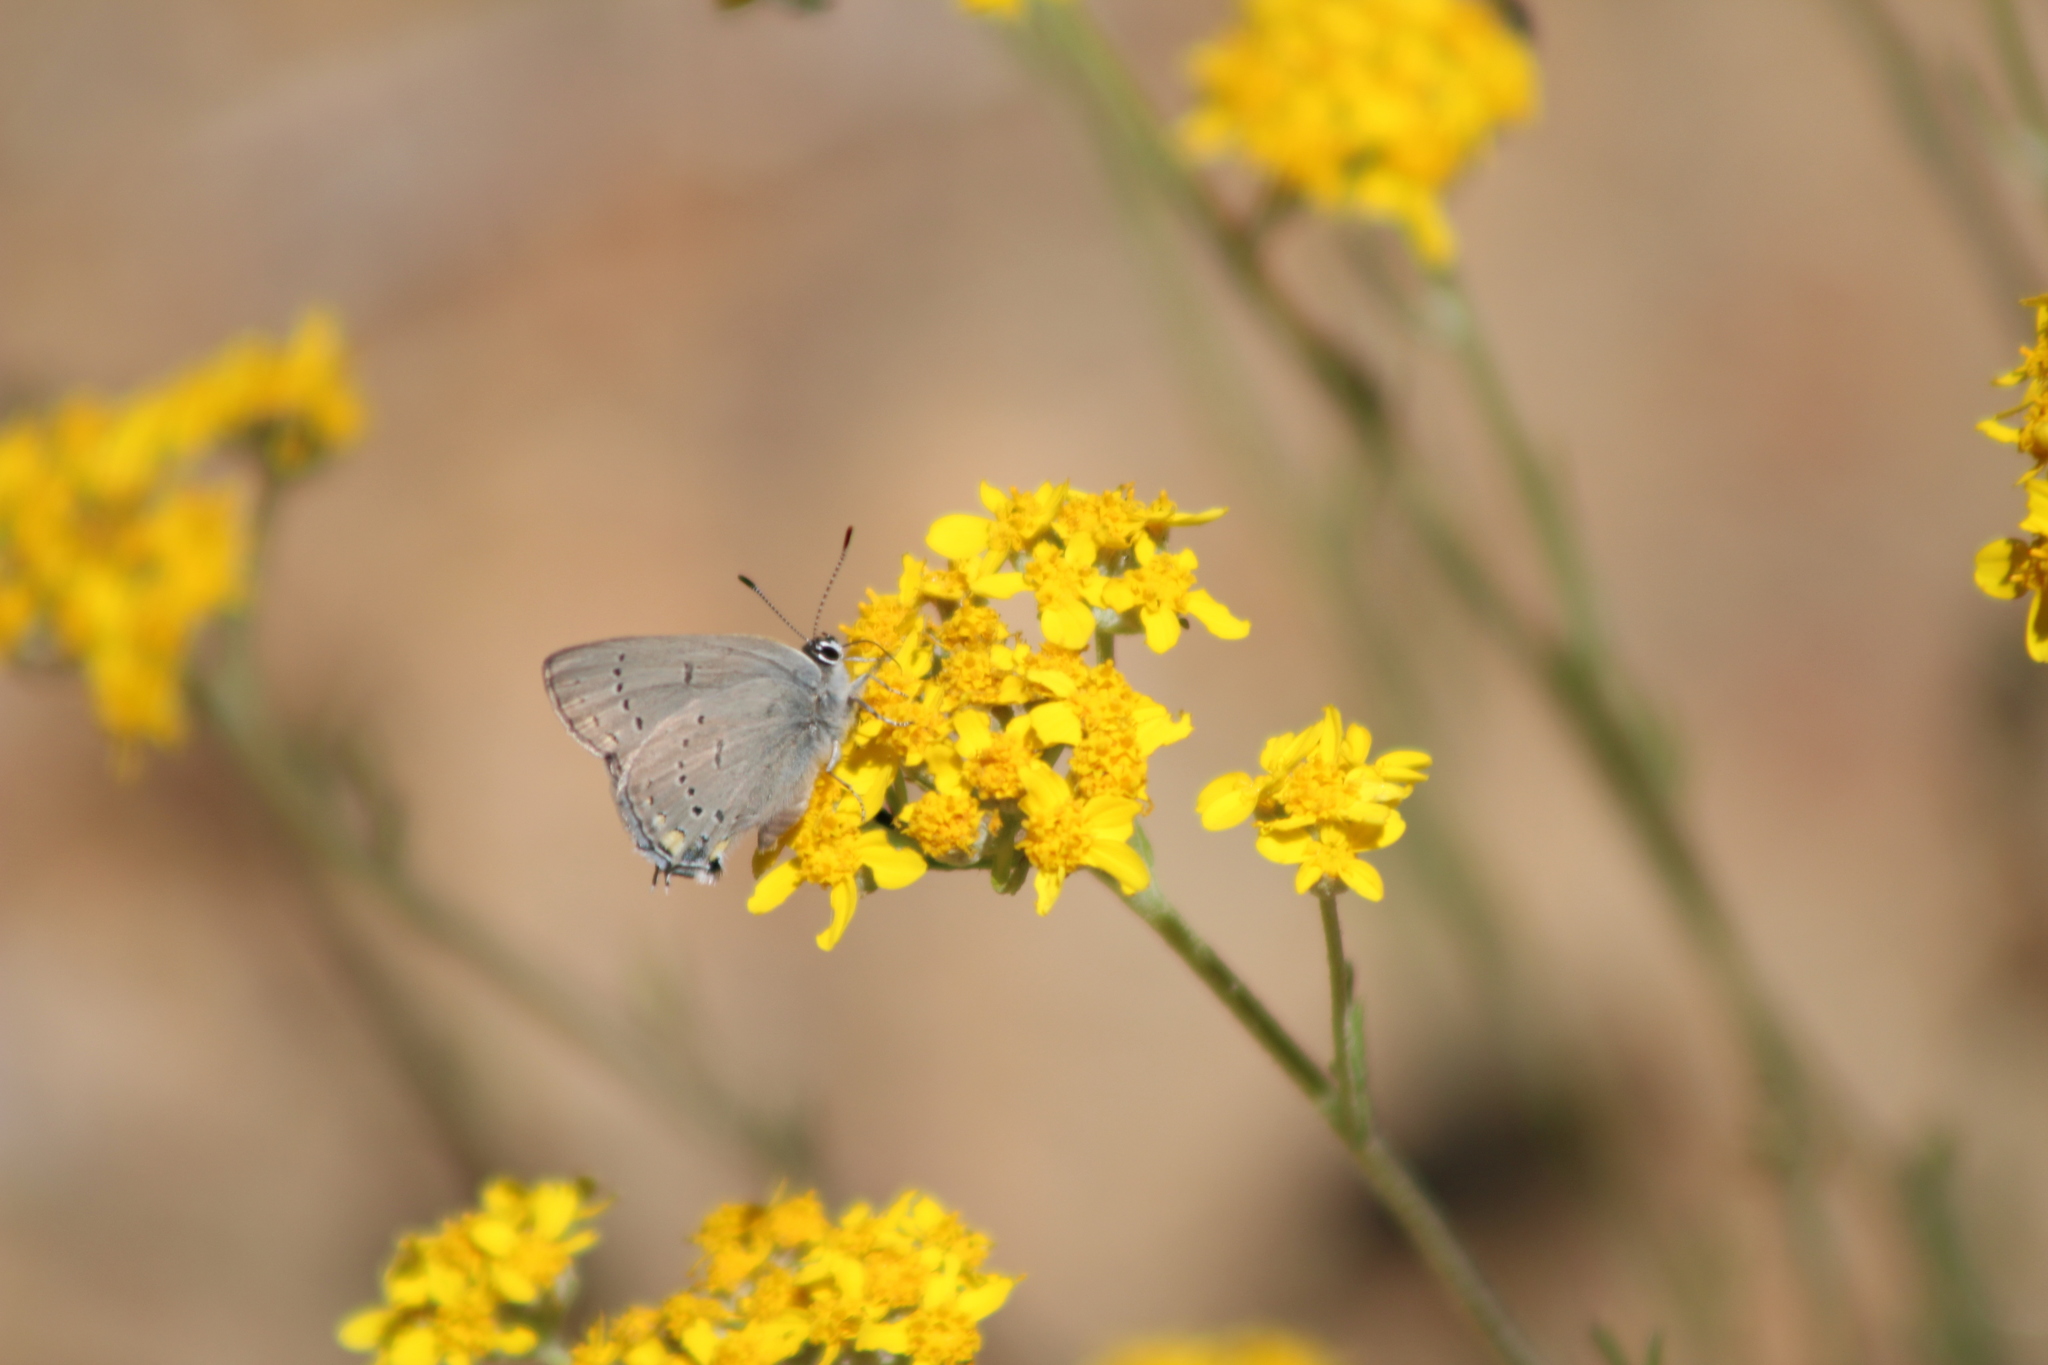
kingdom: Animalia
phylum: Arthropoda
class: Insecta
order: Lepidoptera
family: Lycaenidae
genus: Strymon
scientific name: Strymon sylvinus
